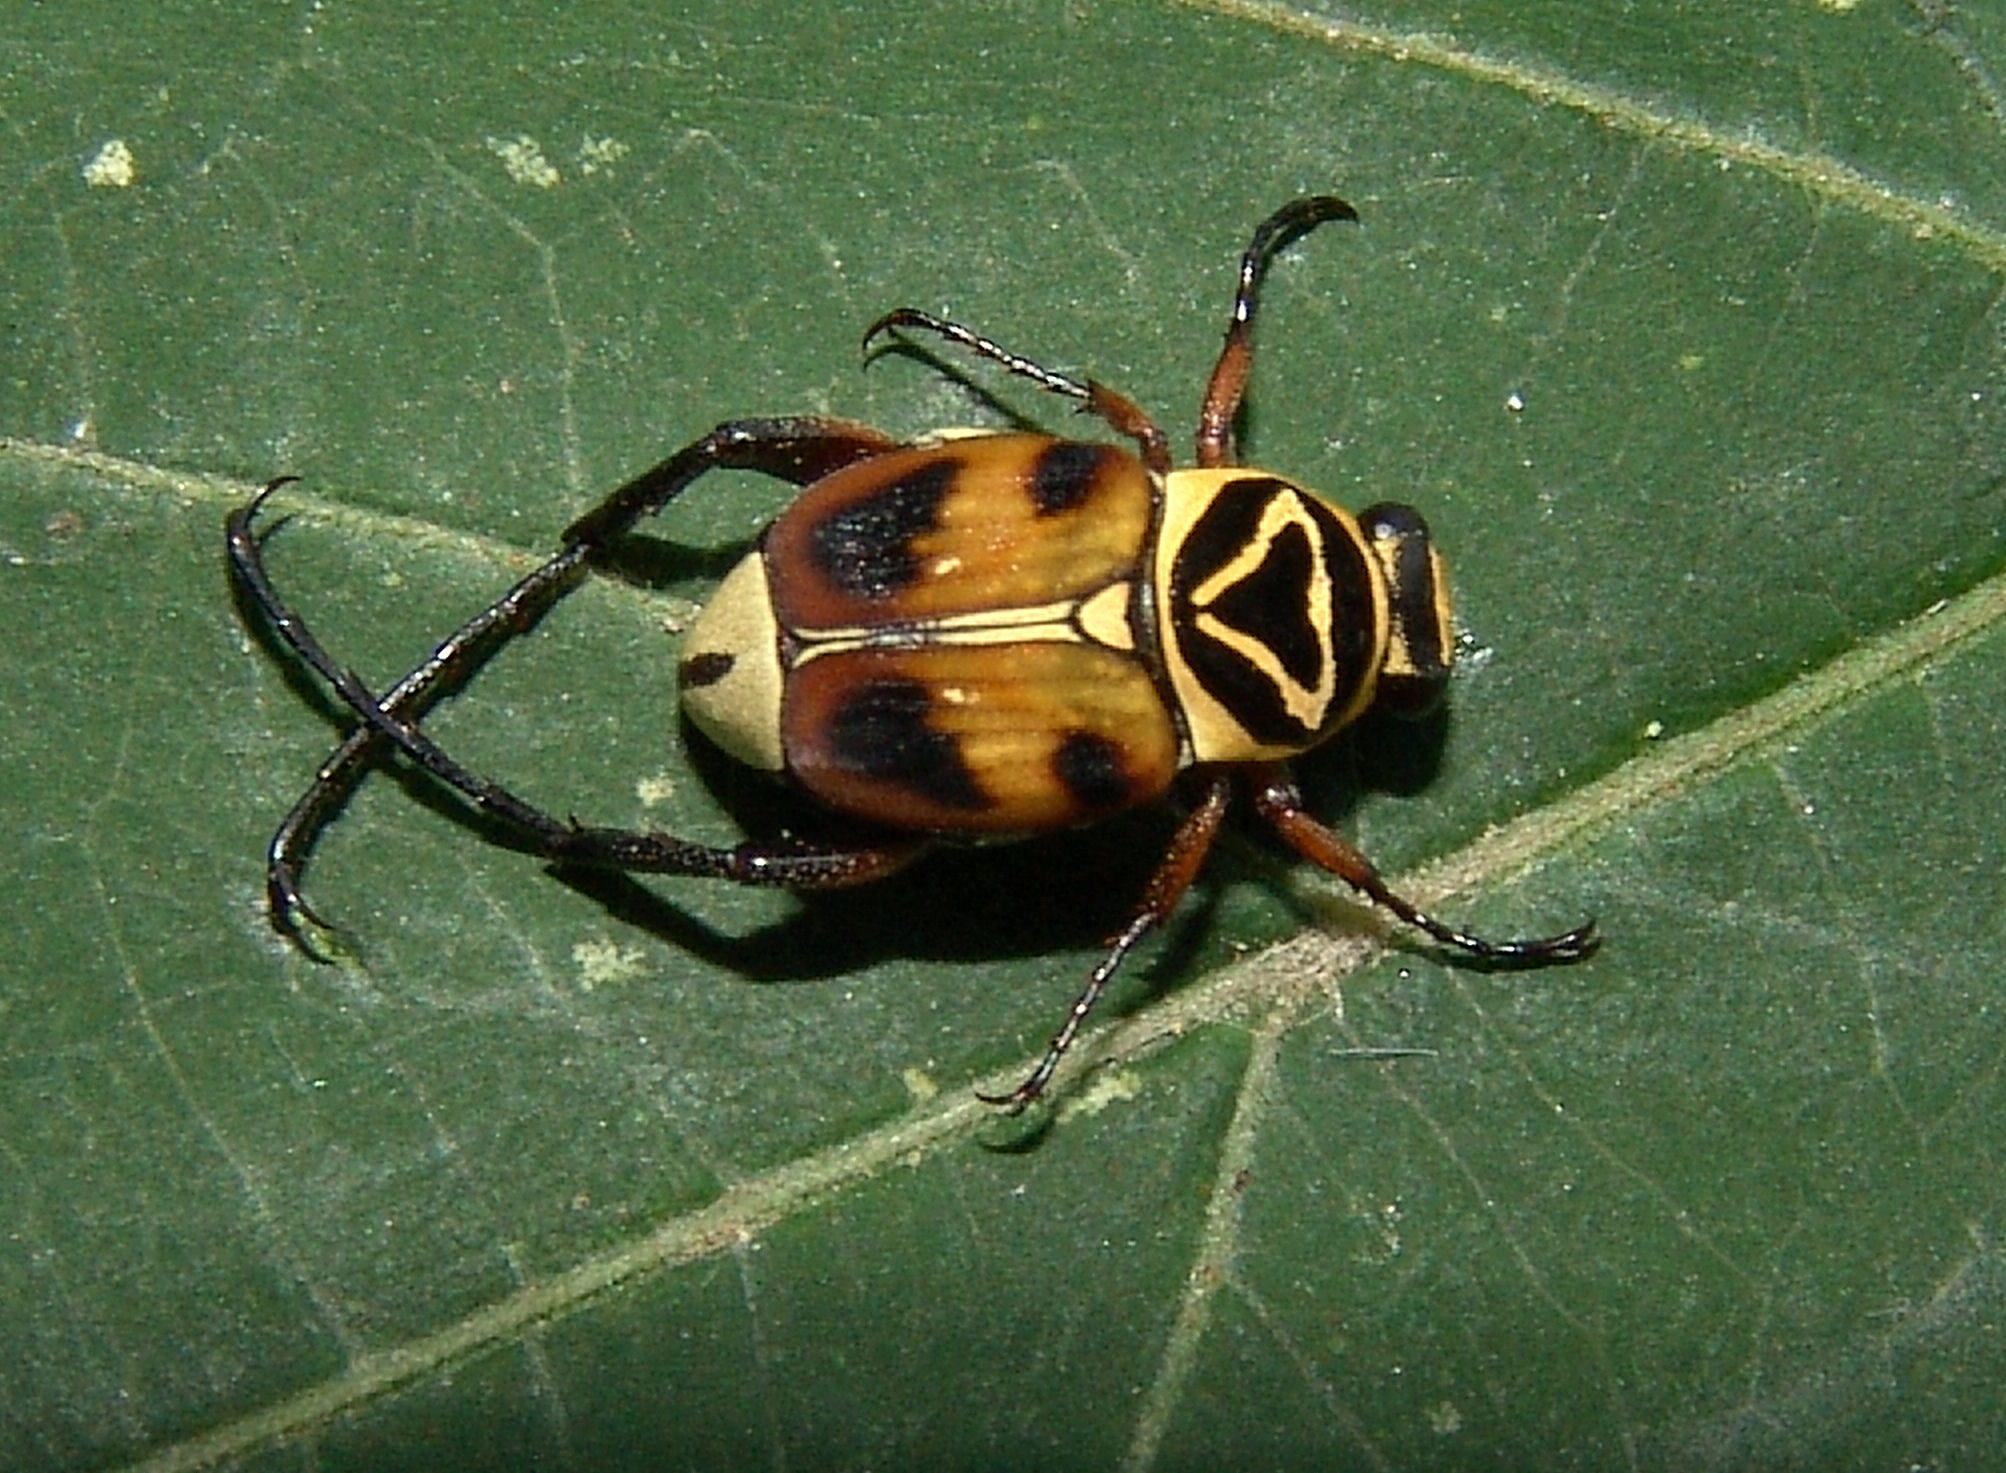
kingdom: Animalia
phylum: Arthropoda
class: Insecta
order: Coleoptera
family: Scarabaeidae
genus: Trigonopeltastes
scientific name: Trigonopeltastes delta
